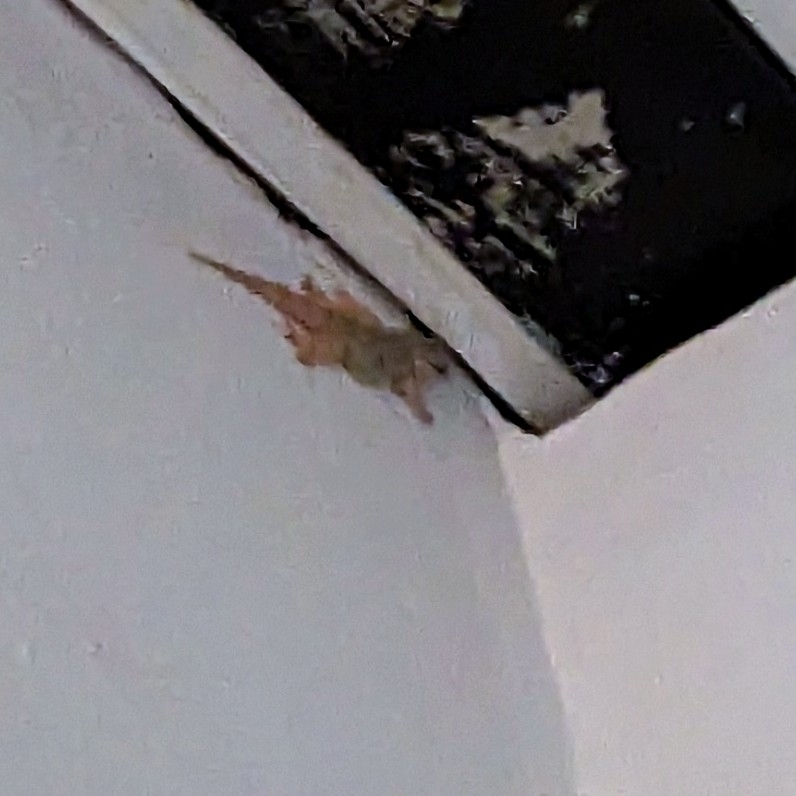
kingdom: Animalia
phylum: Chordata
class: Squamata
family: Phyllodactylidae
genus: Tarentola
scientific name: Tarentola mauritanica
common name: Moorish gecko
